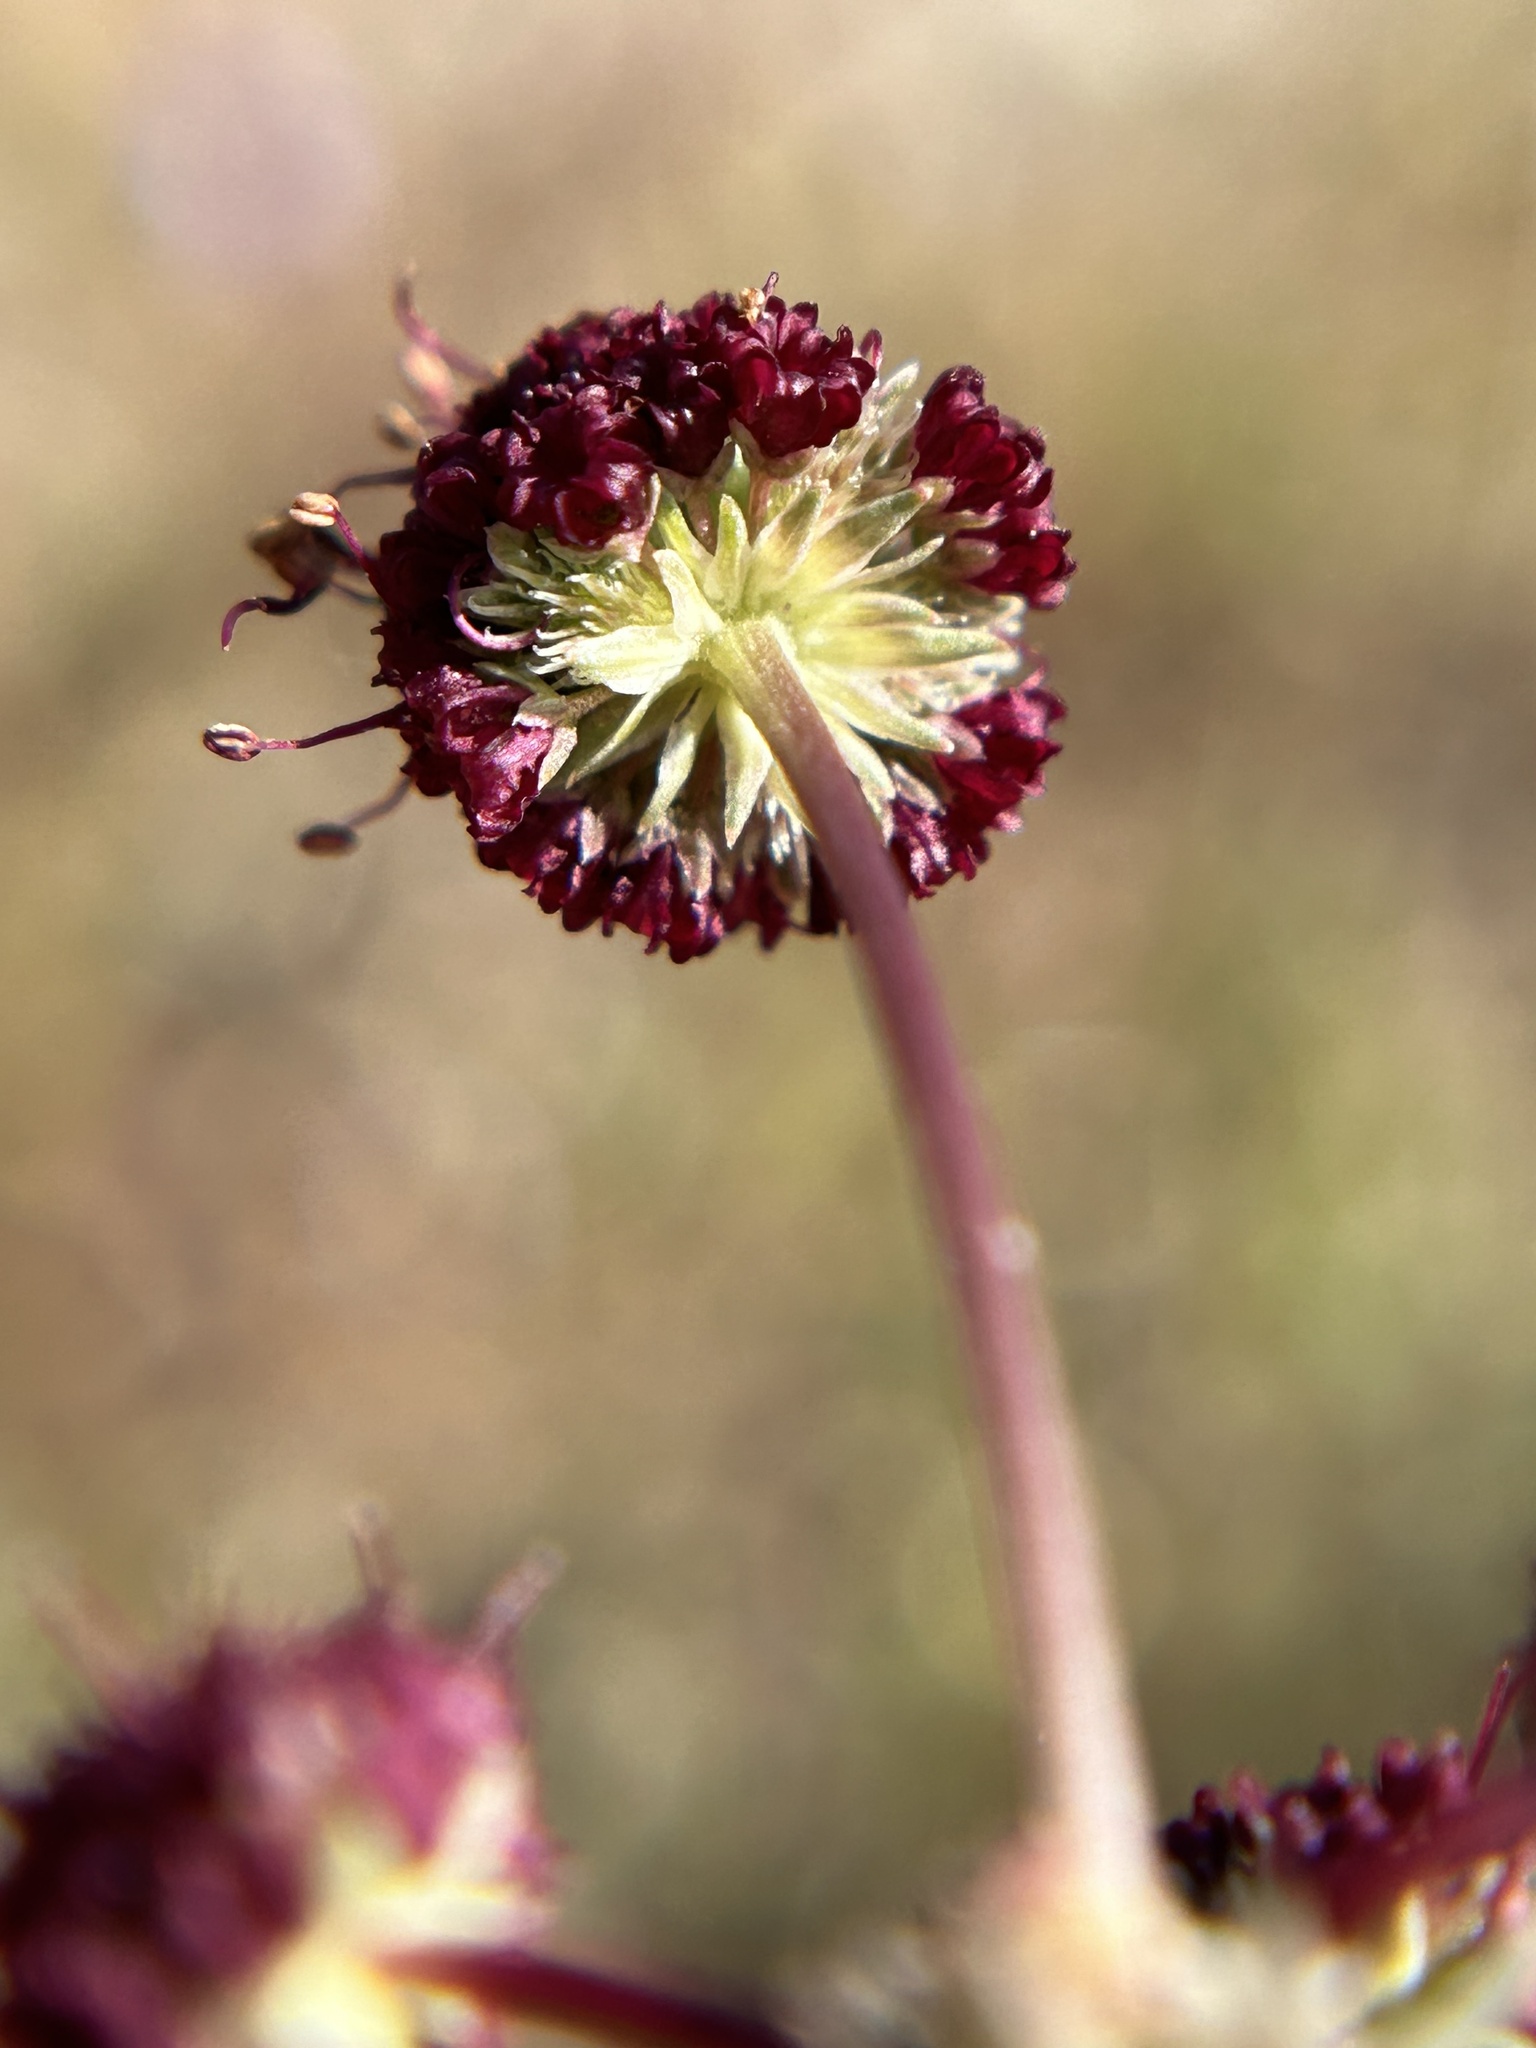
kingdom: Plantae
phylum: Tracheophyta
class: Magnoliopsida
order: Apiales
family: Apiaceae
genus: Sanicula
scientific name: Sanicula bipinnatifida
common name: Shoe-buttons
